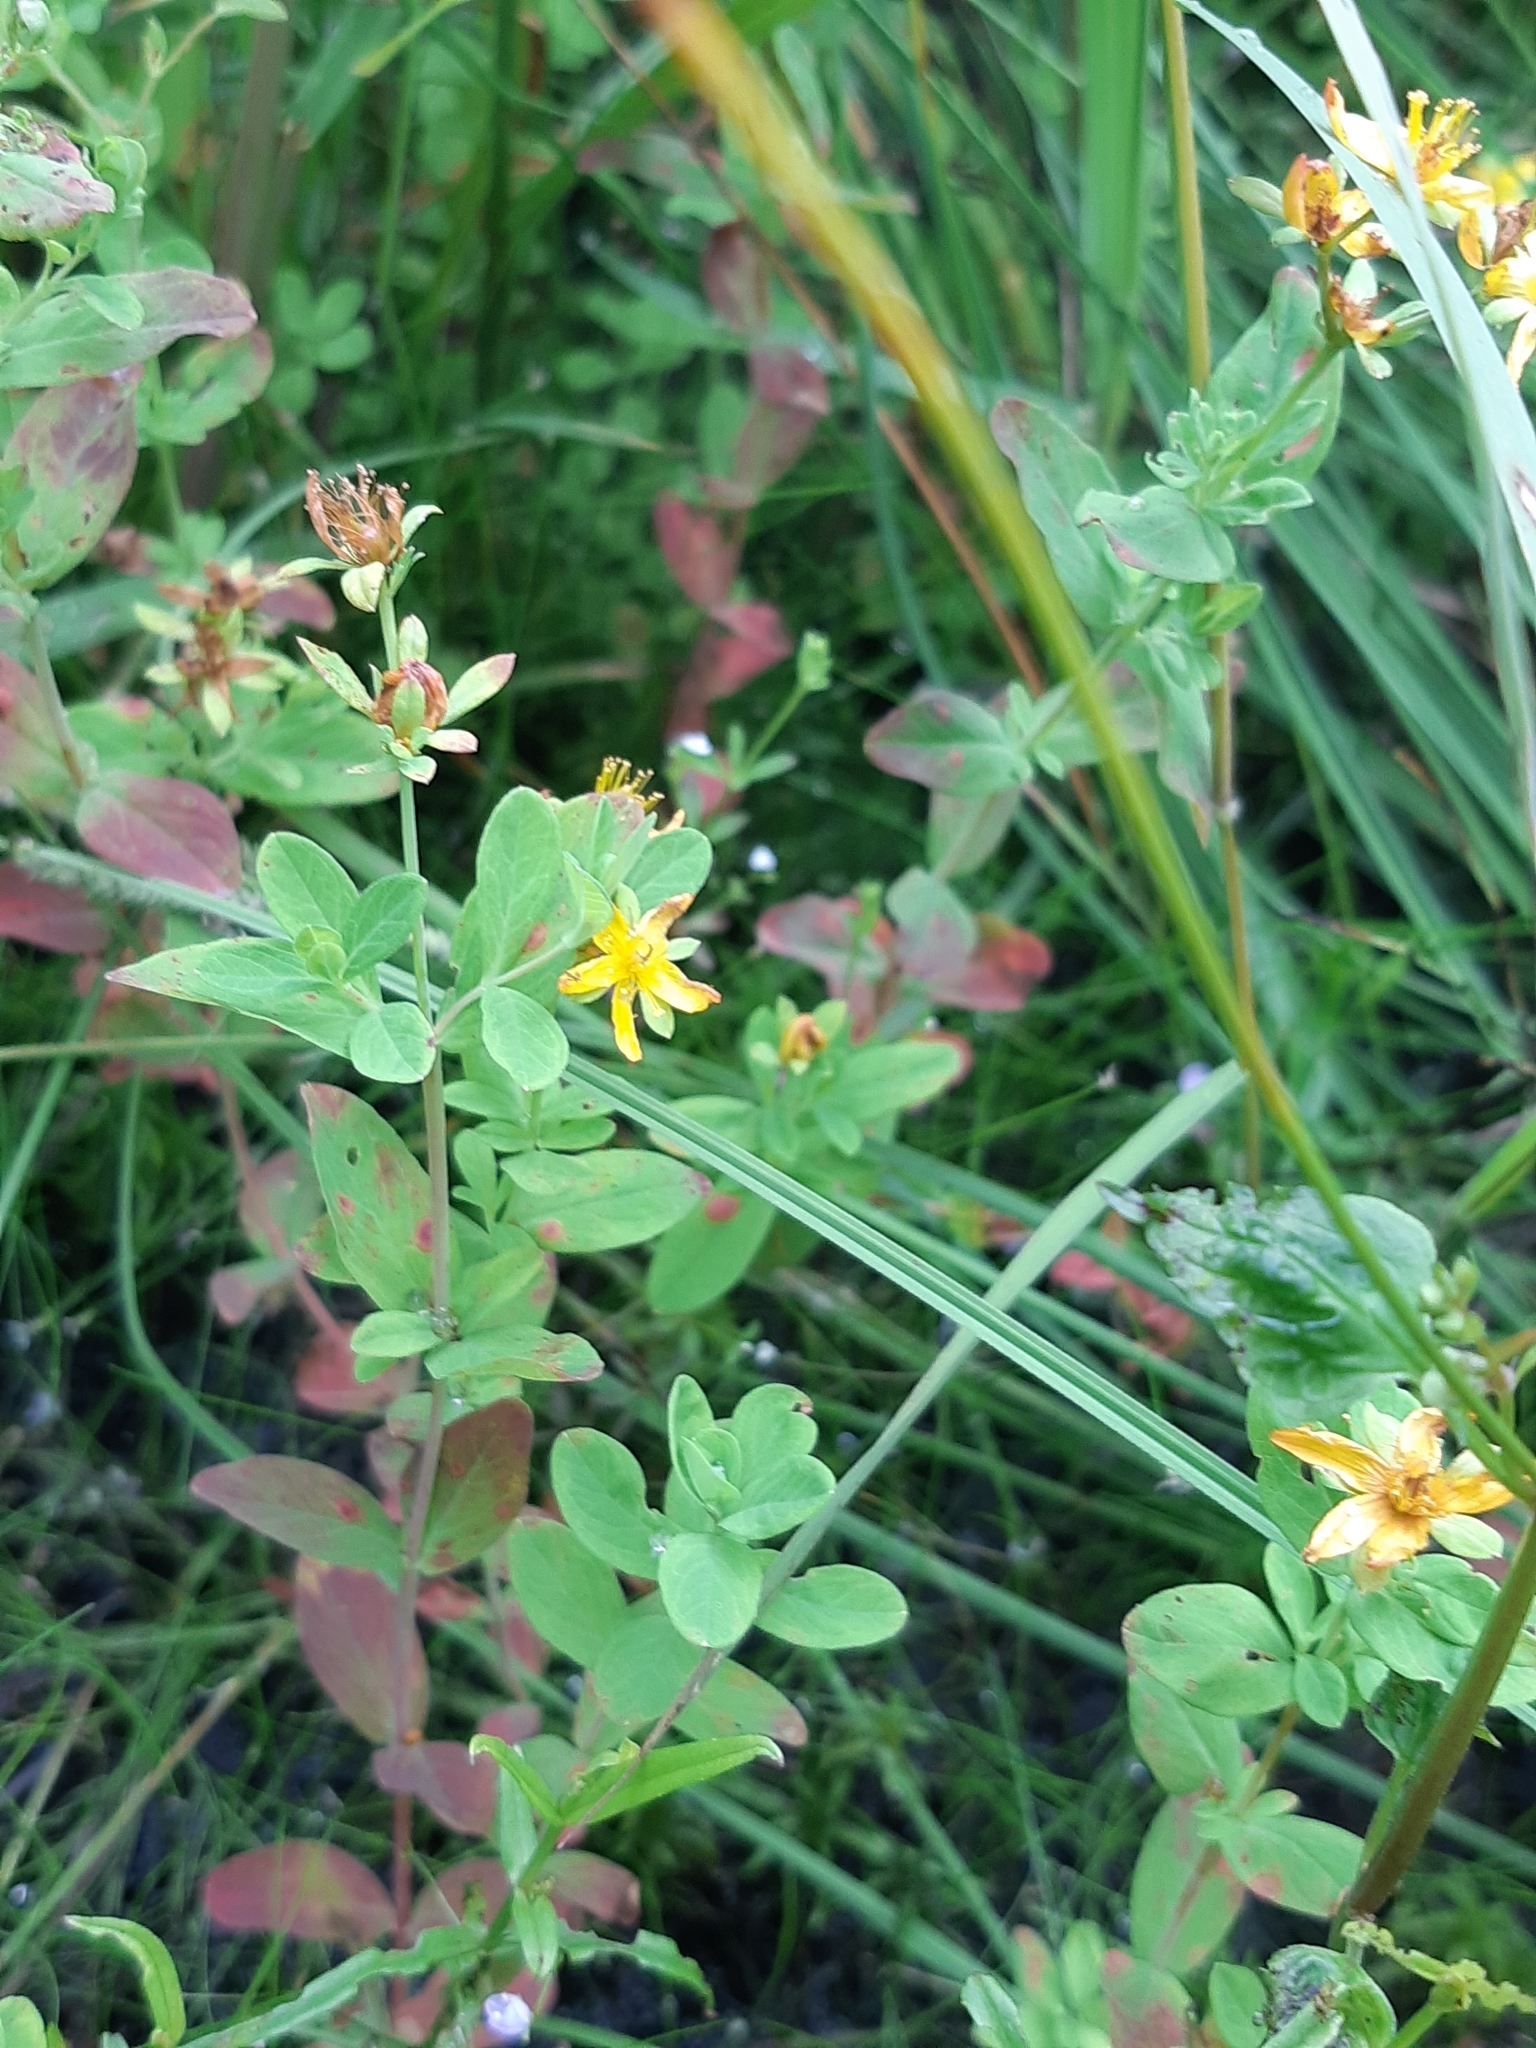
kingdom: Plantae
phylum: Tracheophyta
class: Magnoliopsida
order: Malpighiales
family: Hypericaceae
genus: Hypericum
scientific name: Hypericum ellipticum
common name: Elliptic st. john's-wort
